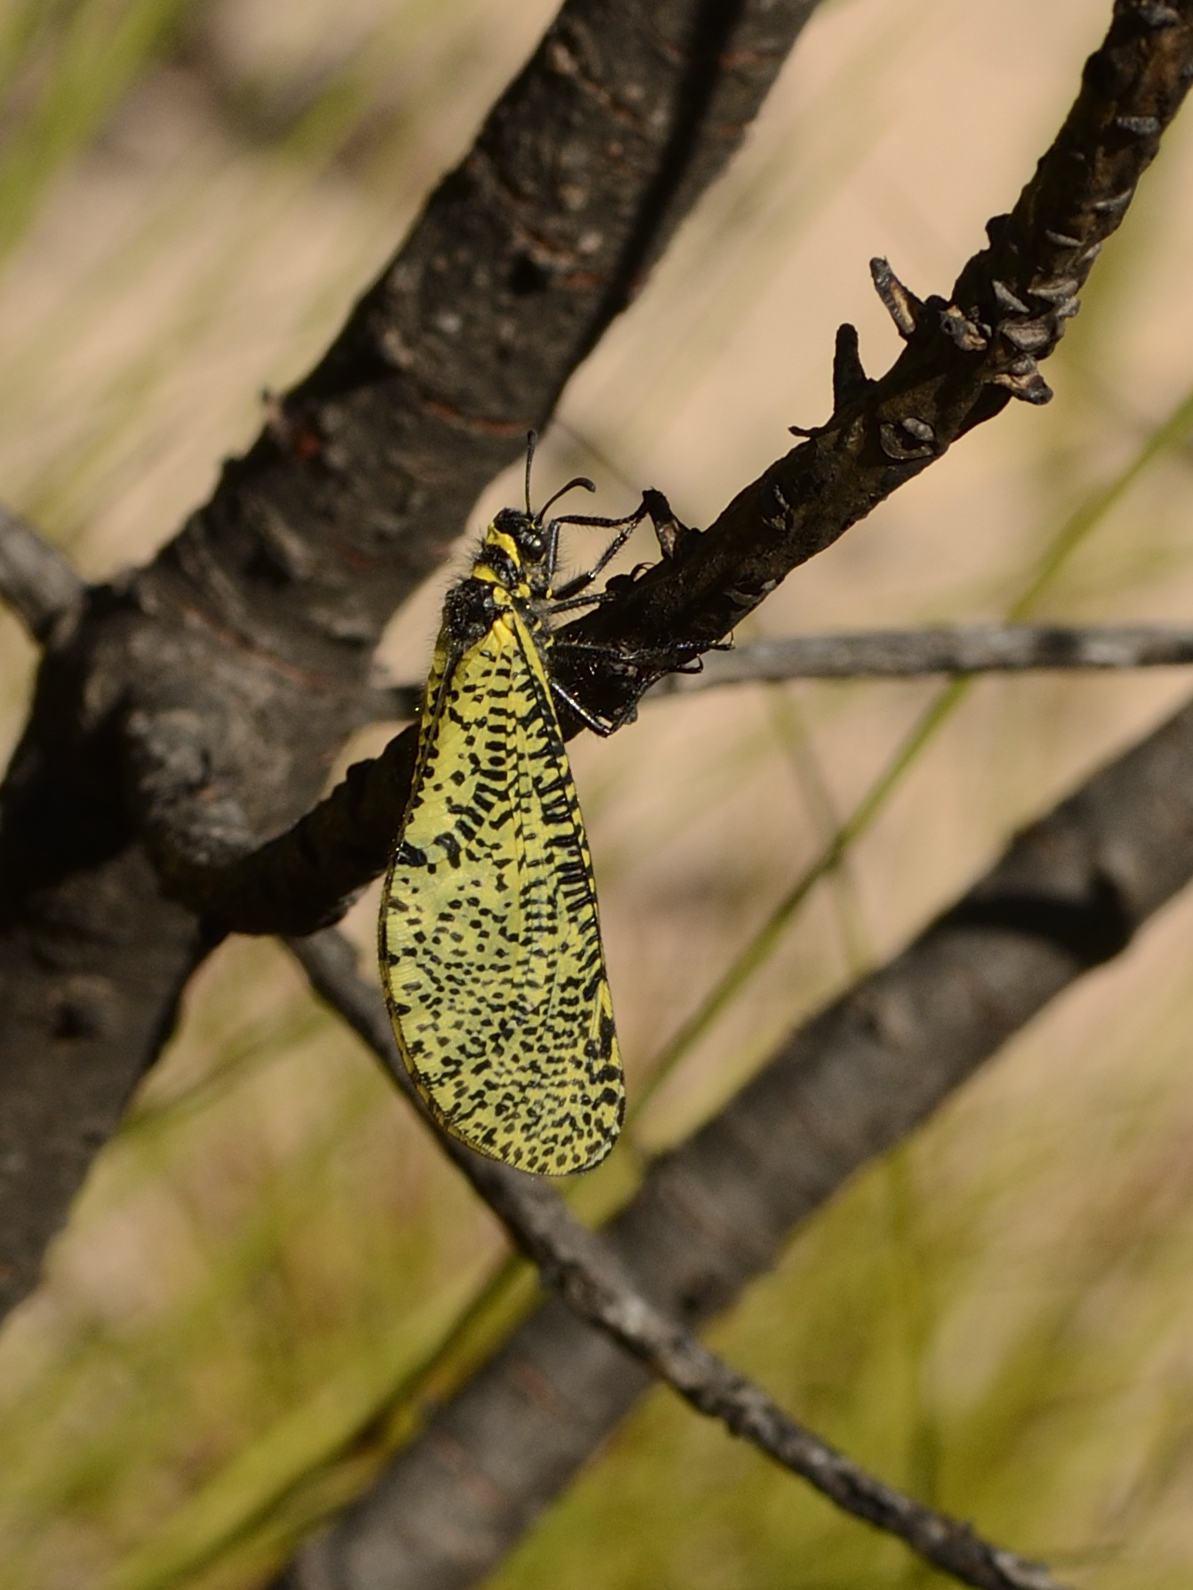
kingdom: Animalia
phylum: Arthropoda
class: Insecta
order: Neuroptera
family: Myrmeleontidae
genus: Pamexis
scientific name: Pamexis lutea
